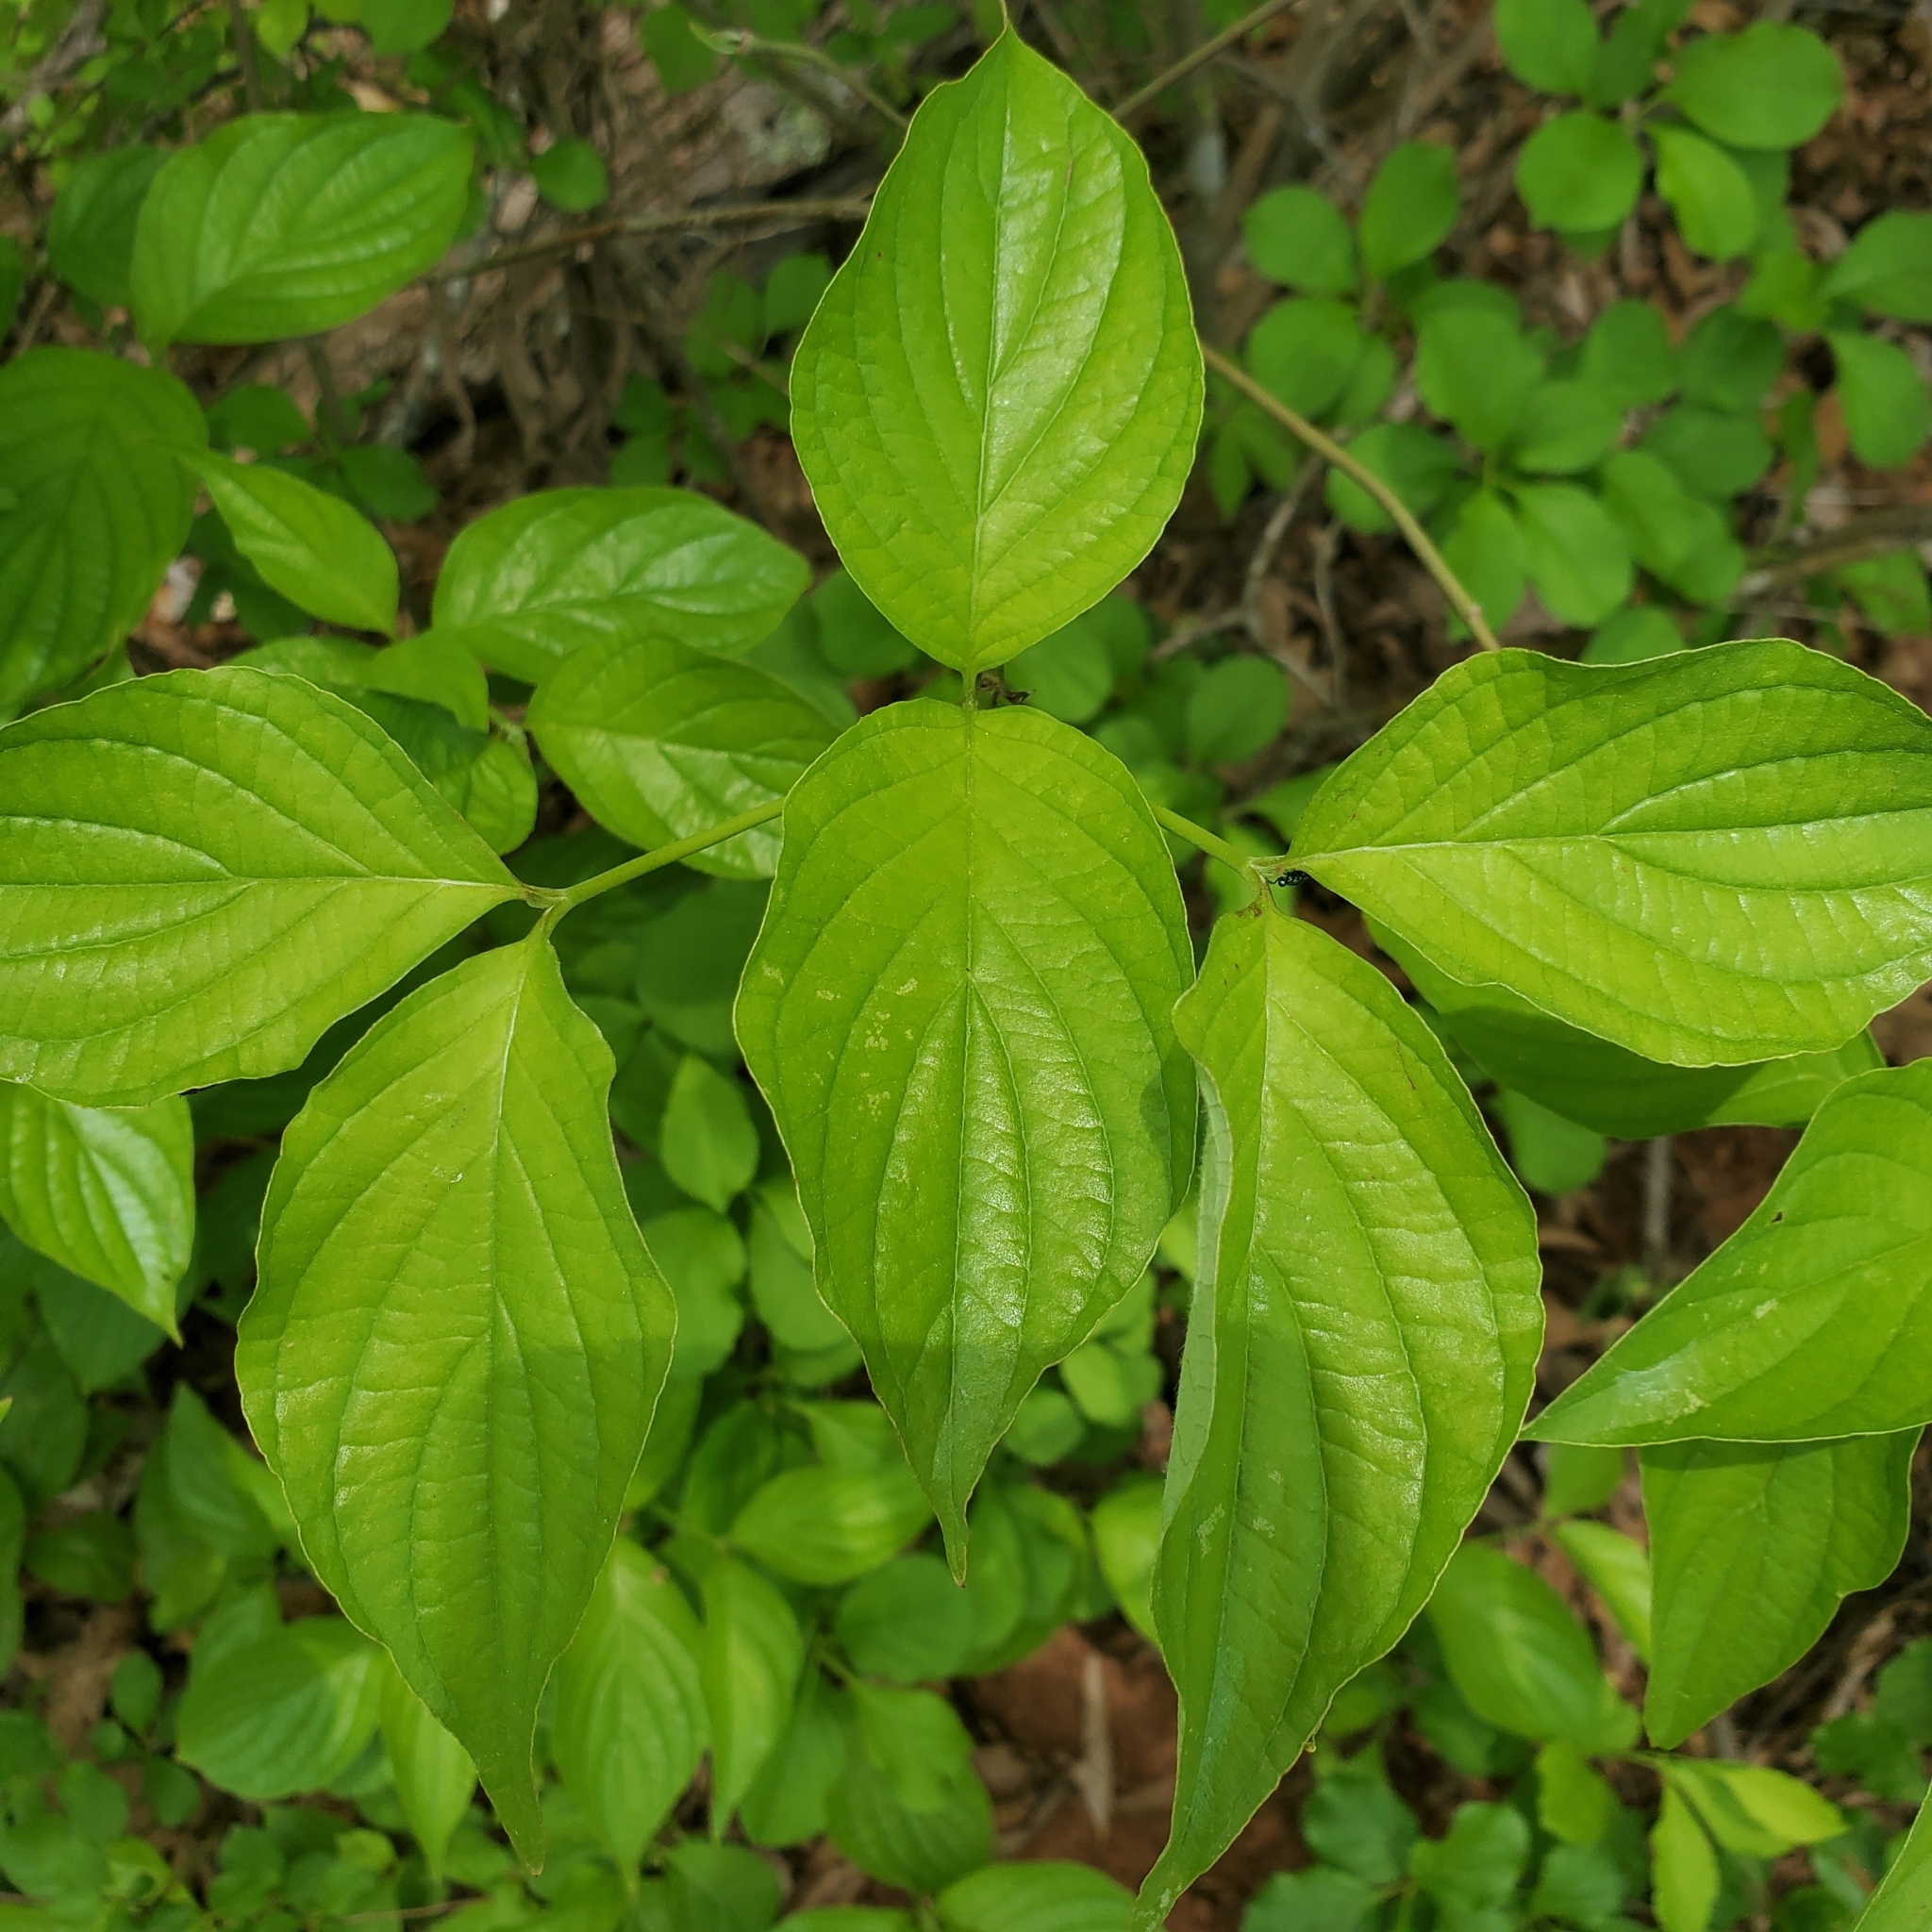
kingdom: Plantae
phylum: Tracheophyta
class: Magnoliopsida
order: Cornales
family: Cornaceae
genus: Cornus
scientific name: Cornus florida
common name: Flowering dogwood
